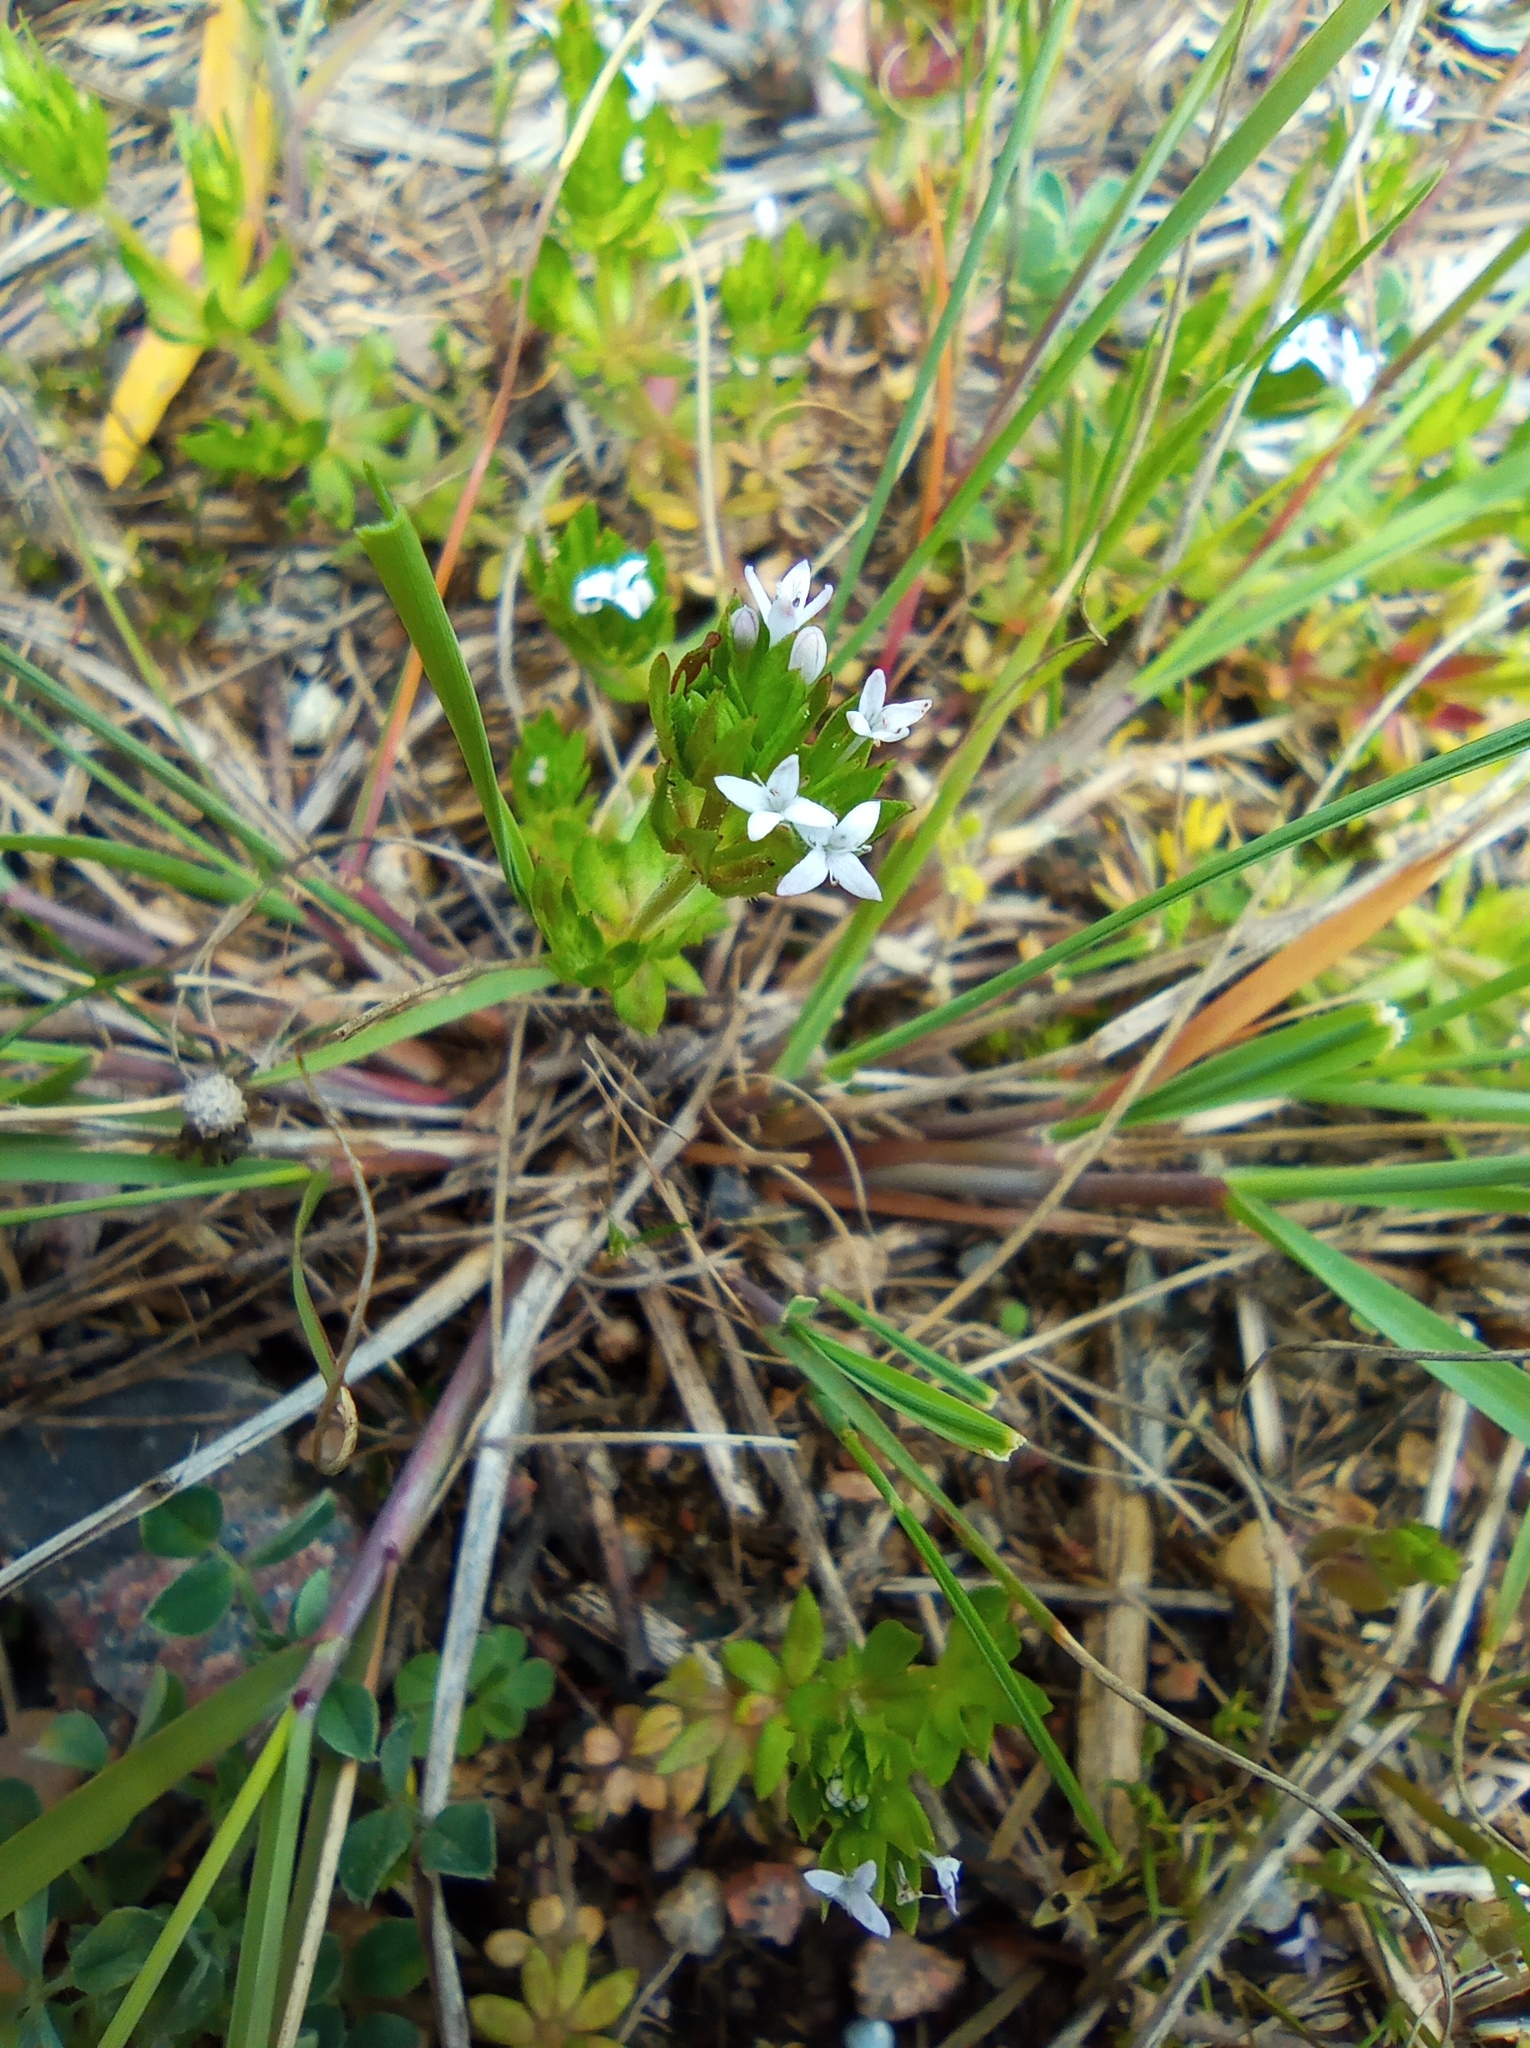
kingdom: Plantae
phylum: Tracheophyta
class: Magnoliopsida
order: Gentianales
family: Rubiaceae
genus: Sherardia
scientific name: Sherardia arvensis
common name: Field madder
